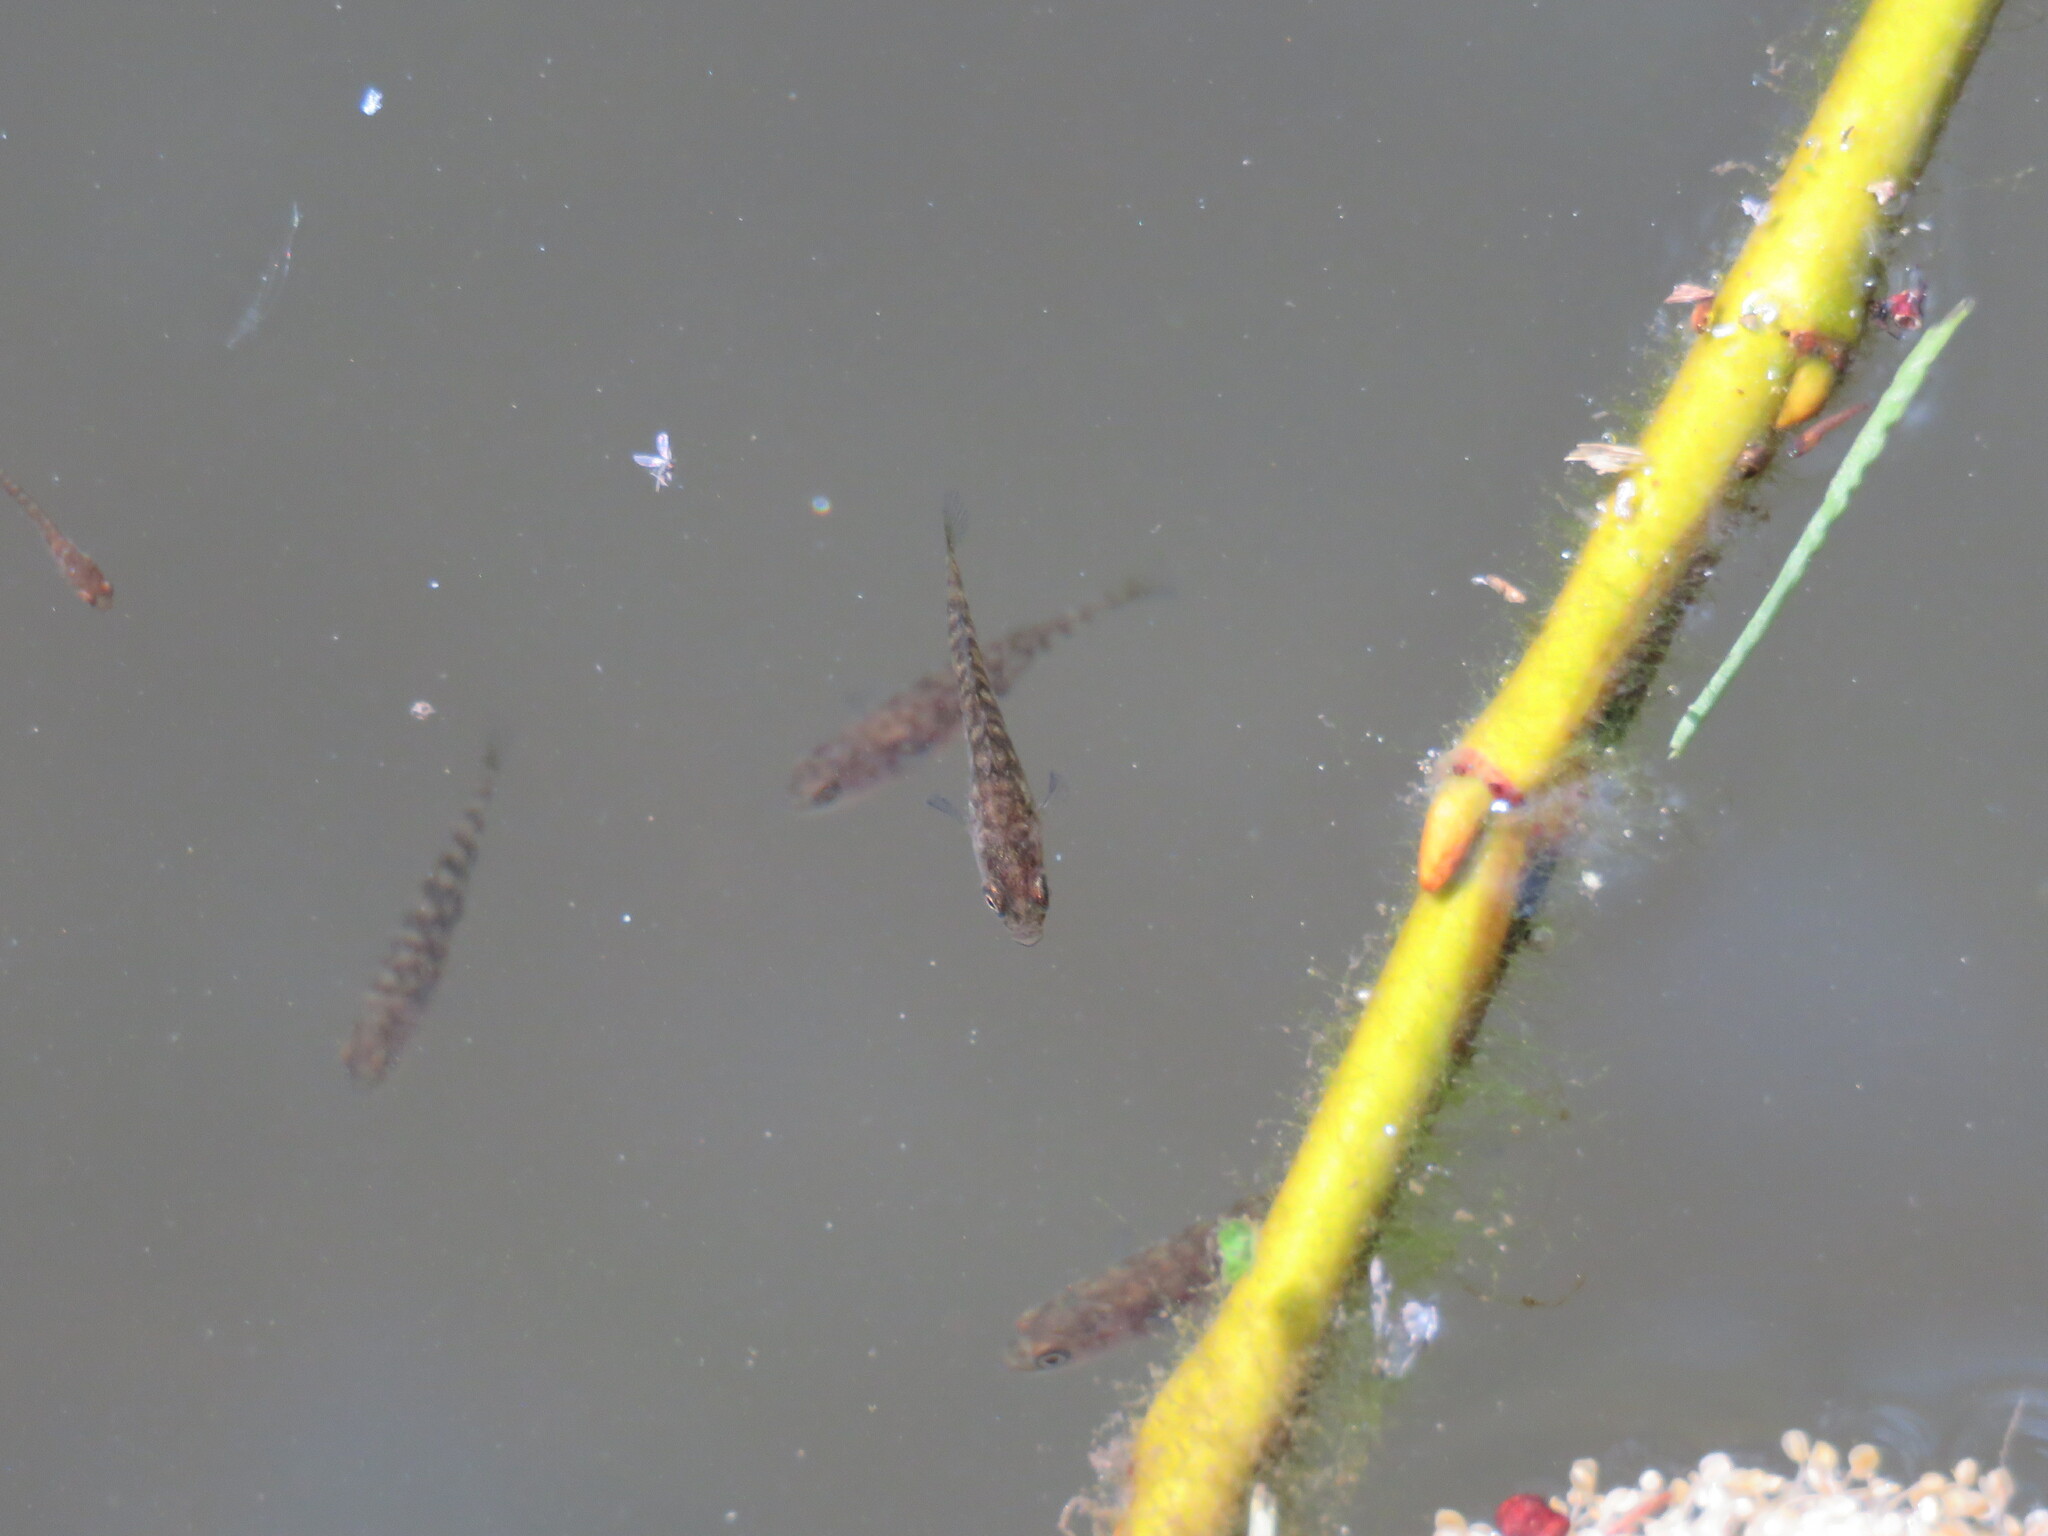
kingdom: Animalia
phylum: Chordata
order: Gasterosteiformes
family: Gasterosteidae
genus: Gasterosteus
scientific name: Gasterosteus aculeatus
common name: Three-spined stickleback
